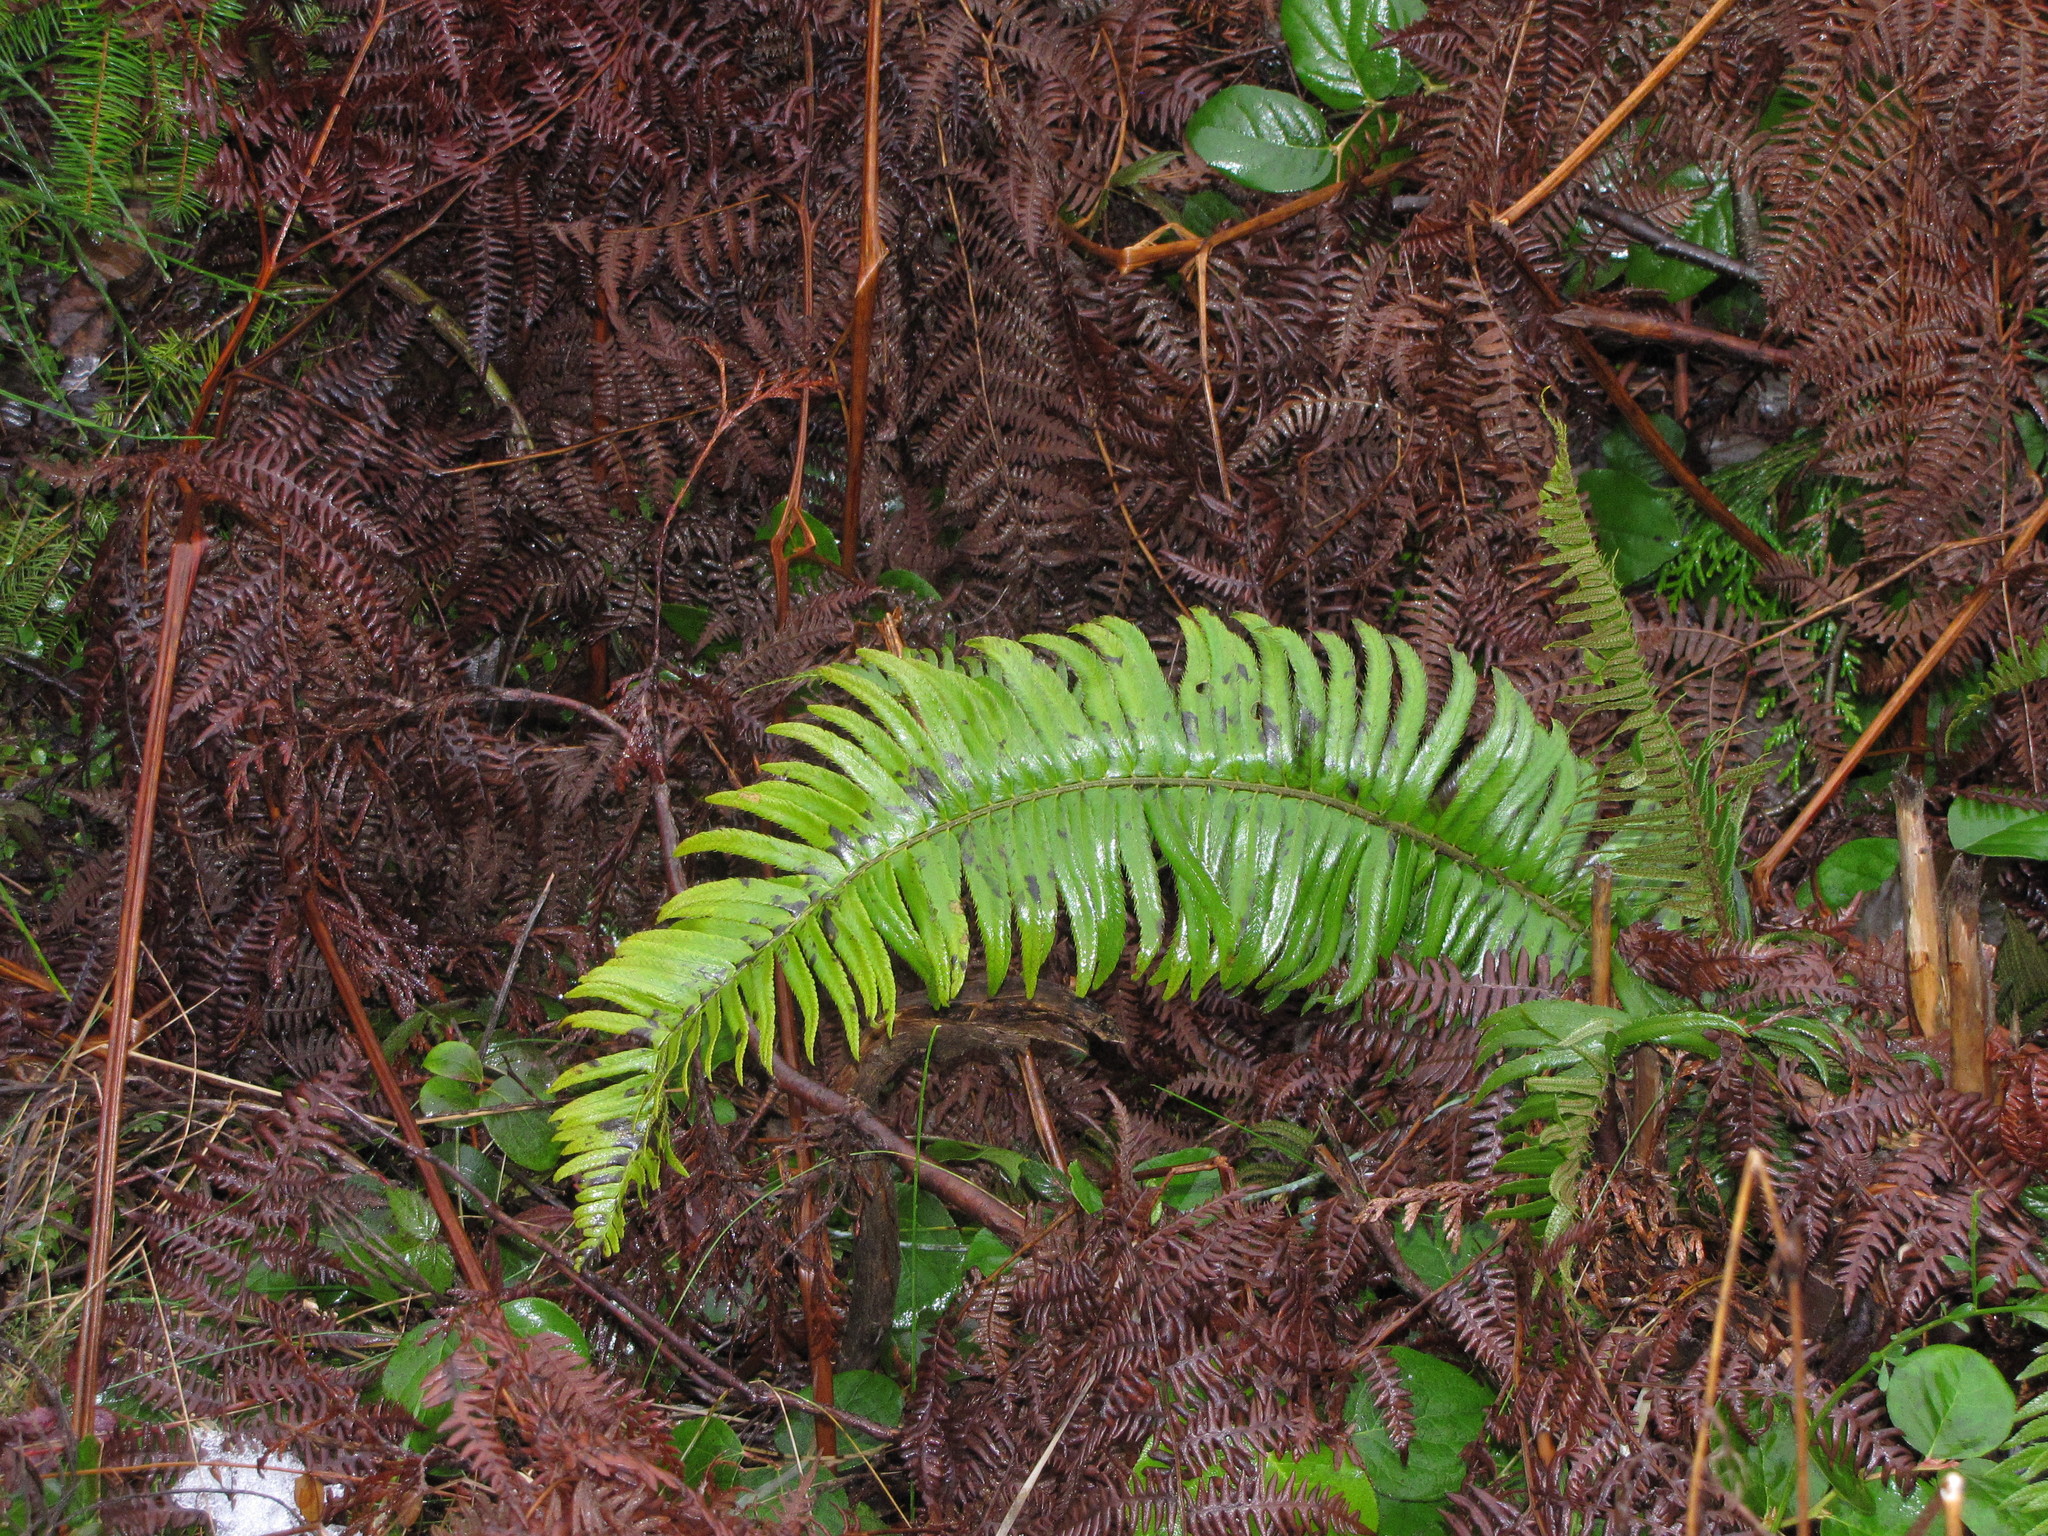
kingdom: Plantae
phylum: Tracheophyta
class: Polypodiopsida
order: Polypodiales
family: Dryopteridaceae
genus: Polystichum
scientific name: Polystichum munitum
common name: Western sword-fern
